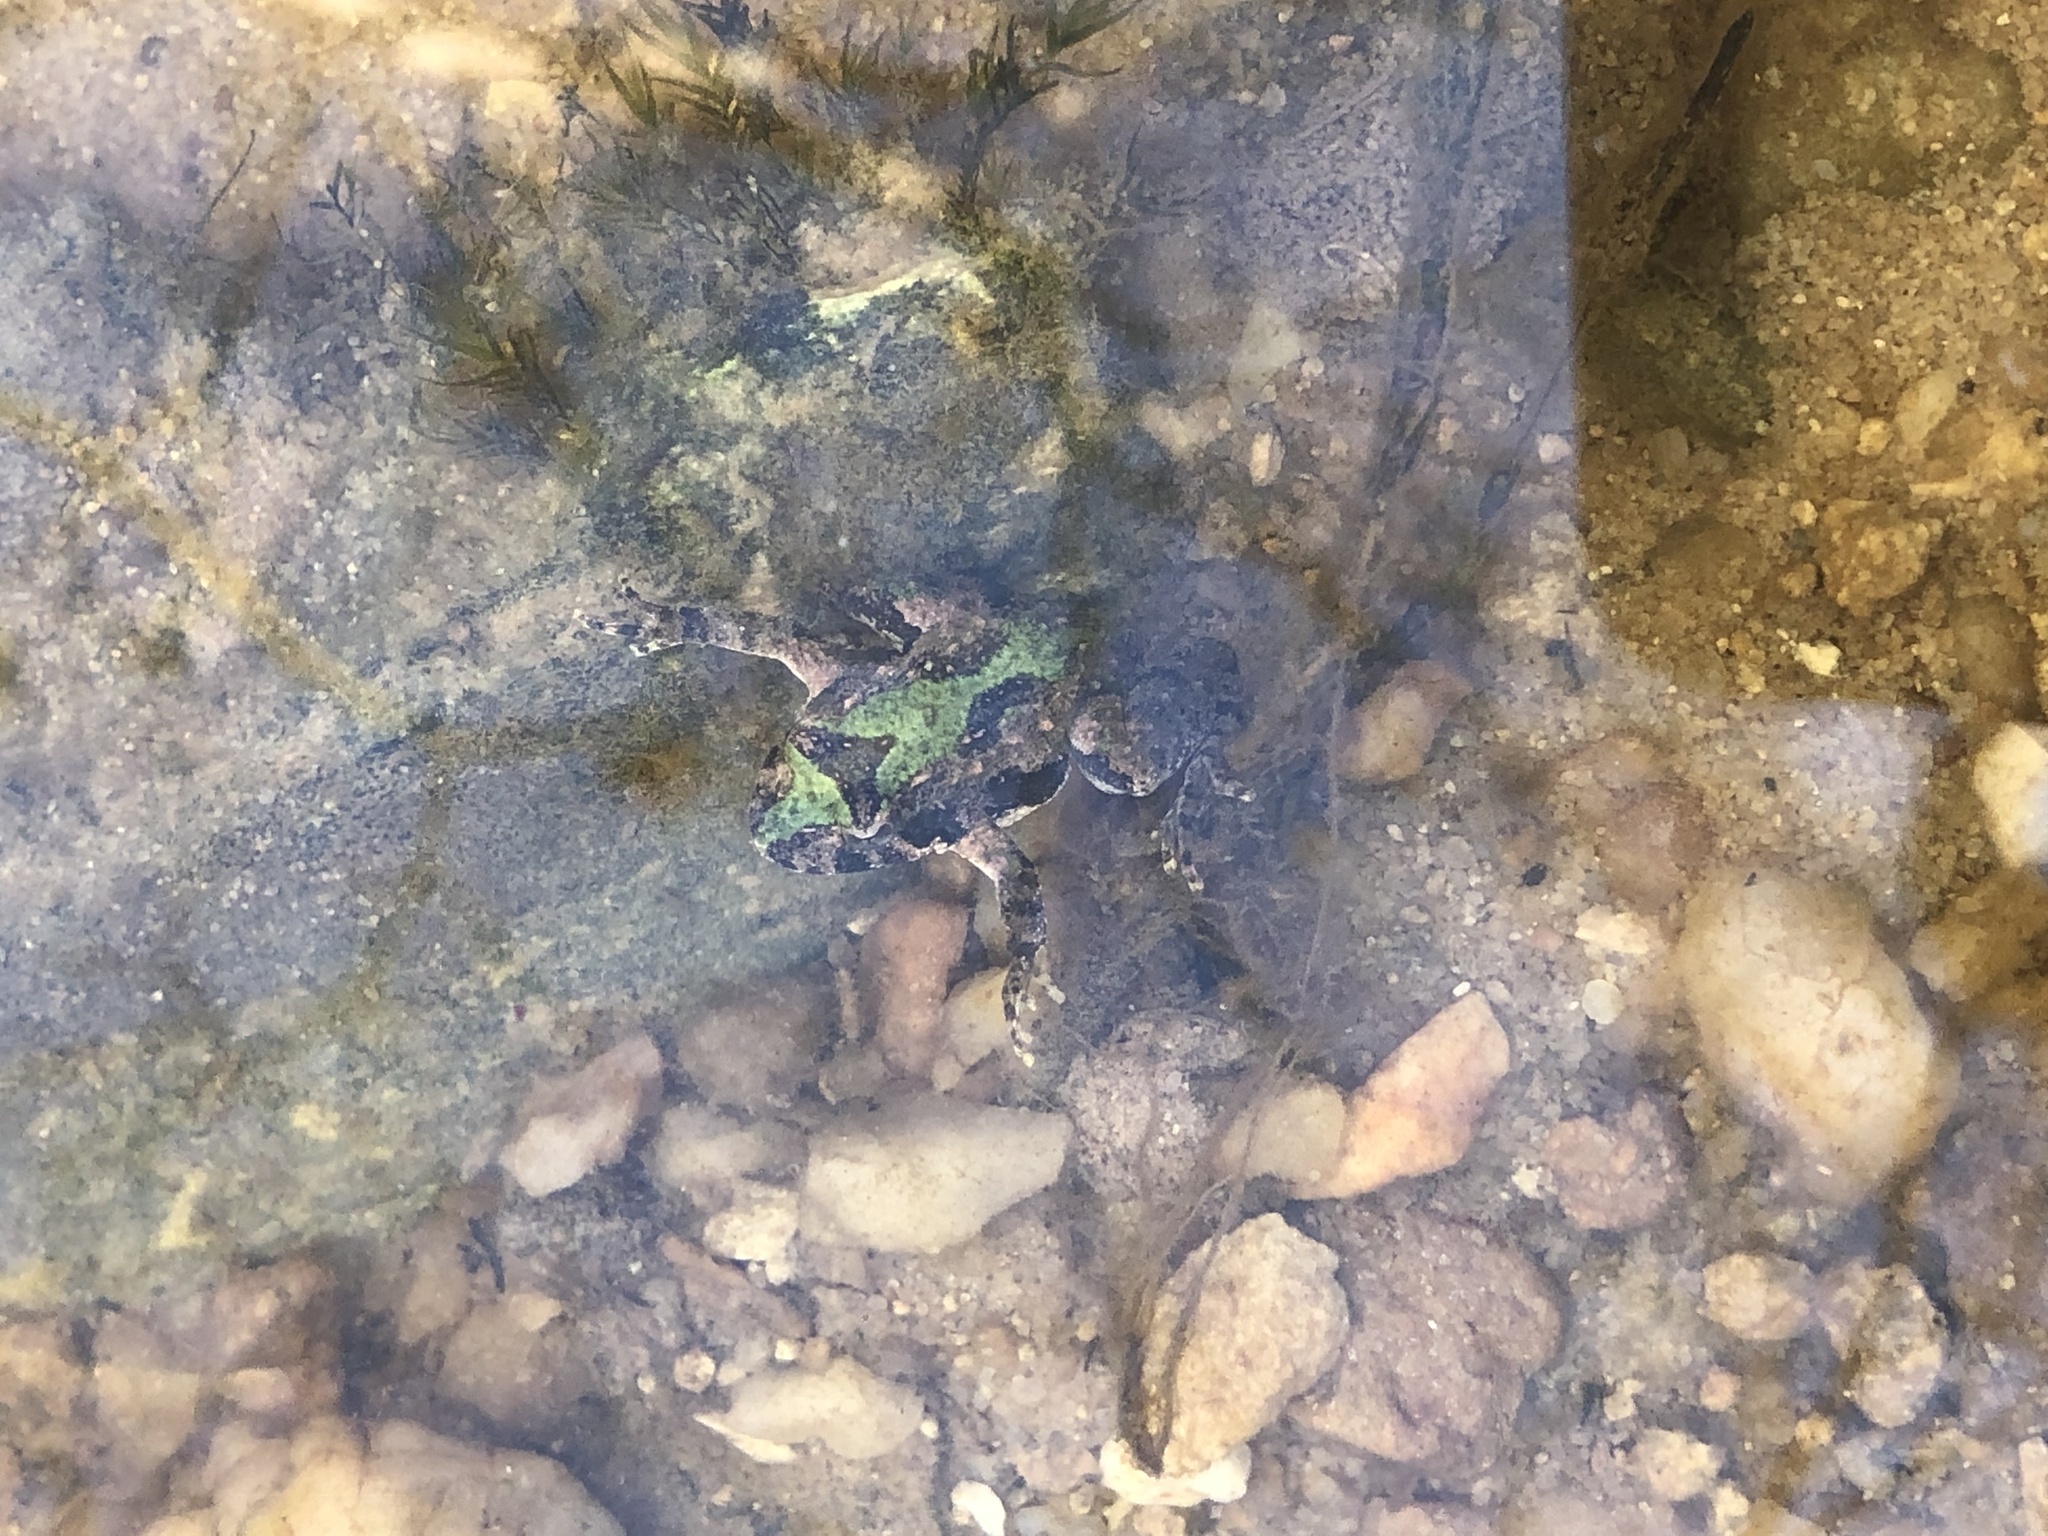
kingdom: Animalia
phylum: Chordata
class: Amphibia
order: Anura
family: Hylidae
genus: Acris
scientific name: Acris crepitans
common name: Northern cricket frog
